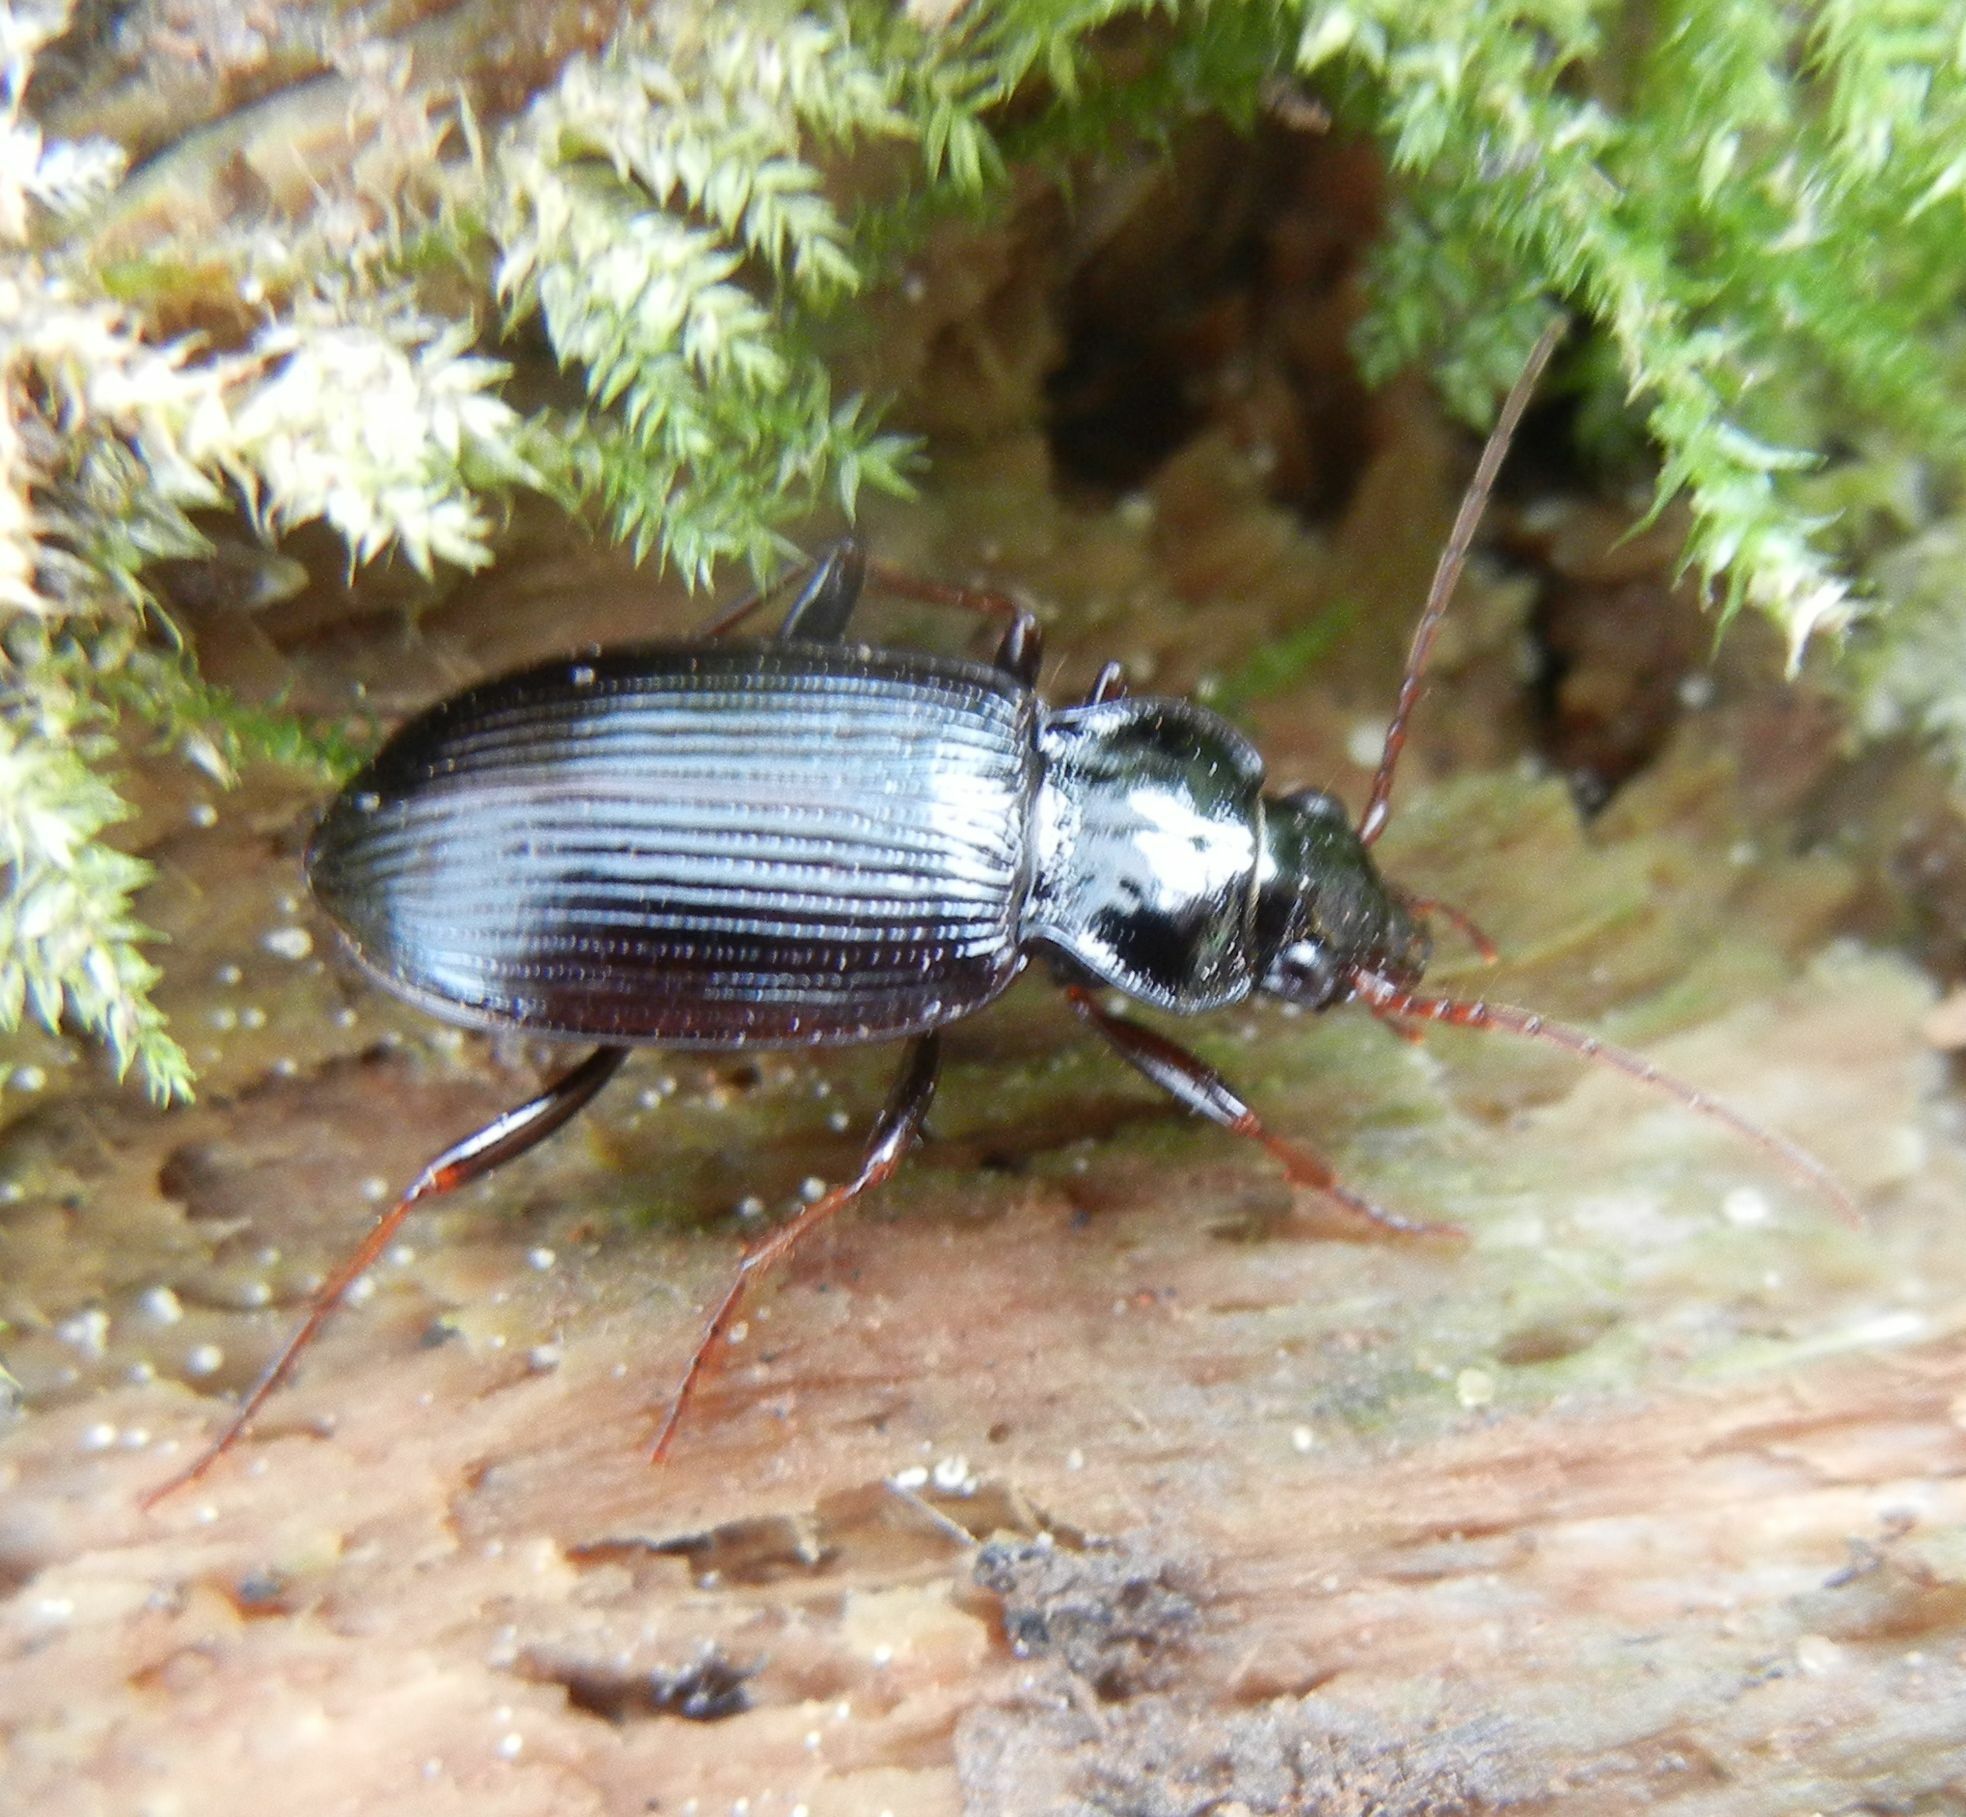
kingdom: Animalia
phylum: Arthropoda
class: Insecta
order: Coleoptera
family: Carabidae
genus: Nebria
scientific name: Nebria brevicollis
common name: Short-necked gazelle beetle
